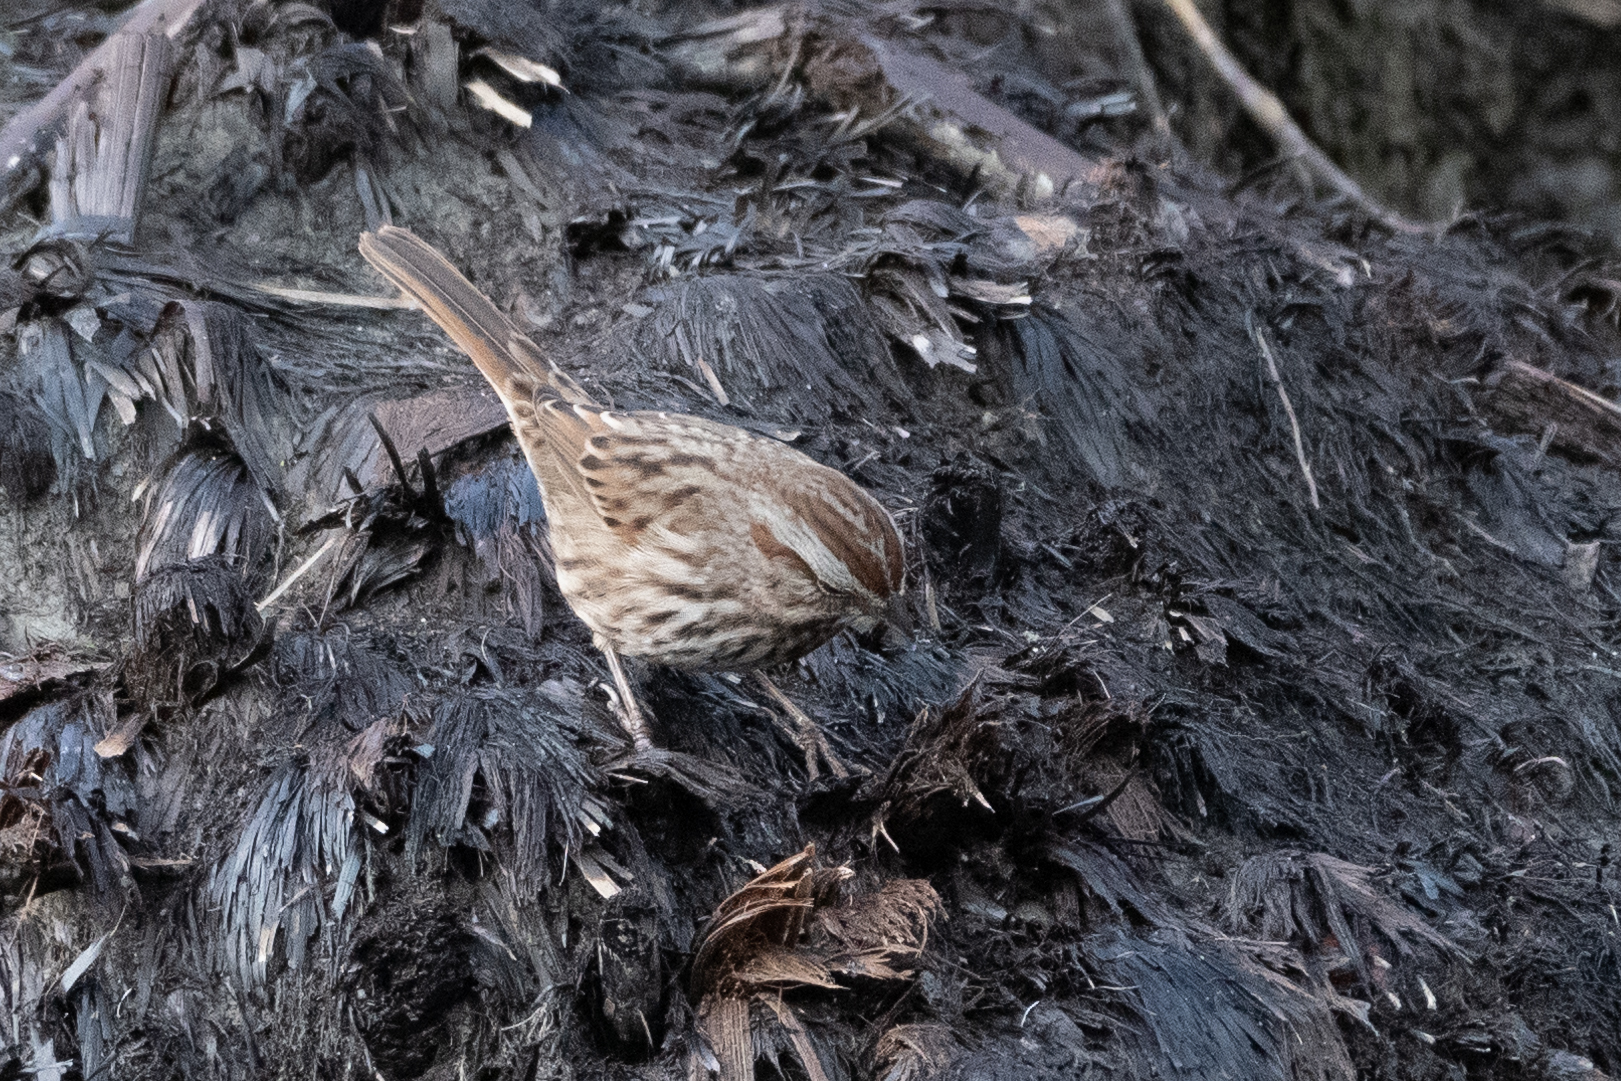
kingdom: Animalia
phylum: Chordata
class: Aves
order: Passeriformes
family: Passerellidae
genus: Melospiza
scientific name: Melospiza melodia
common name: Song sparrow
